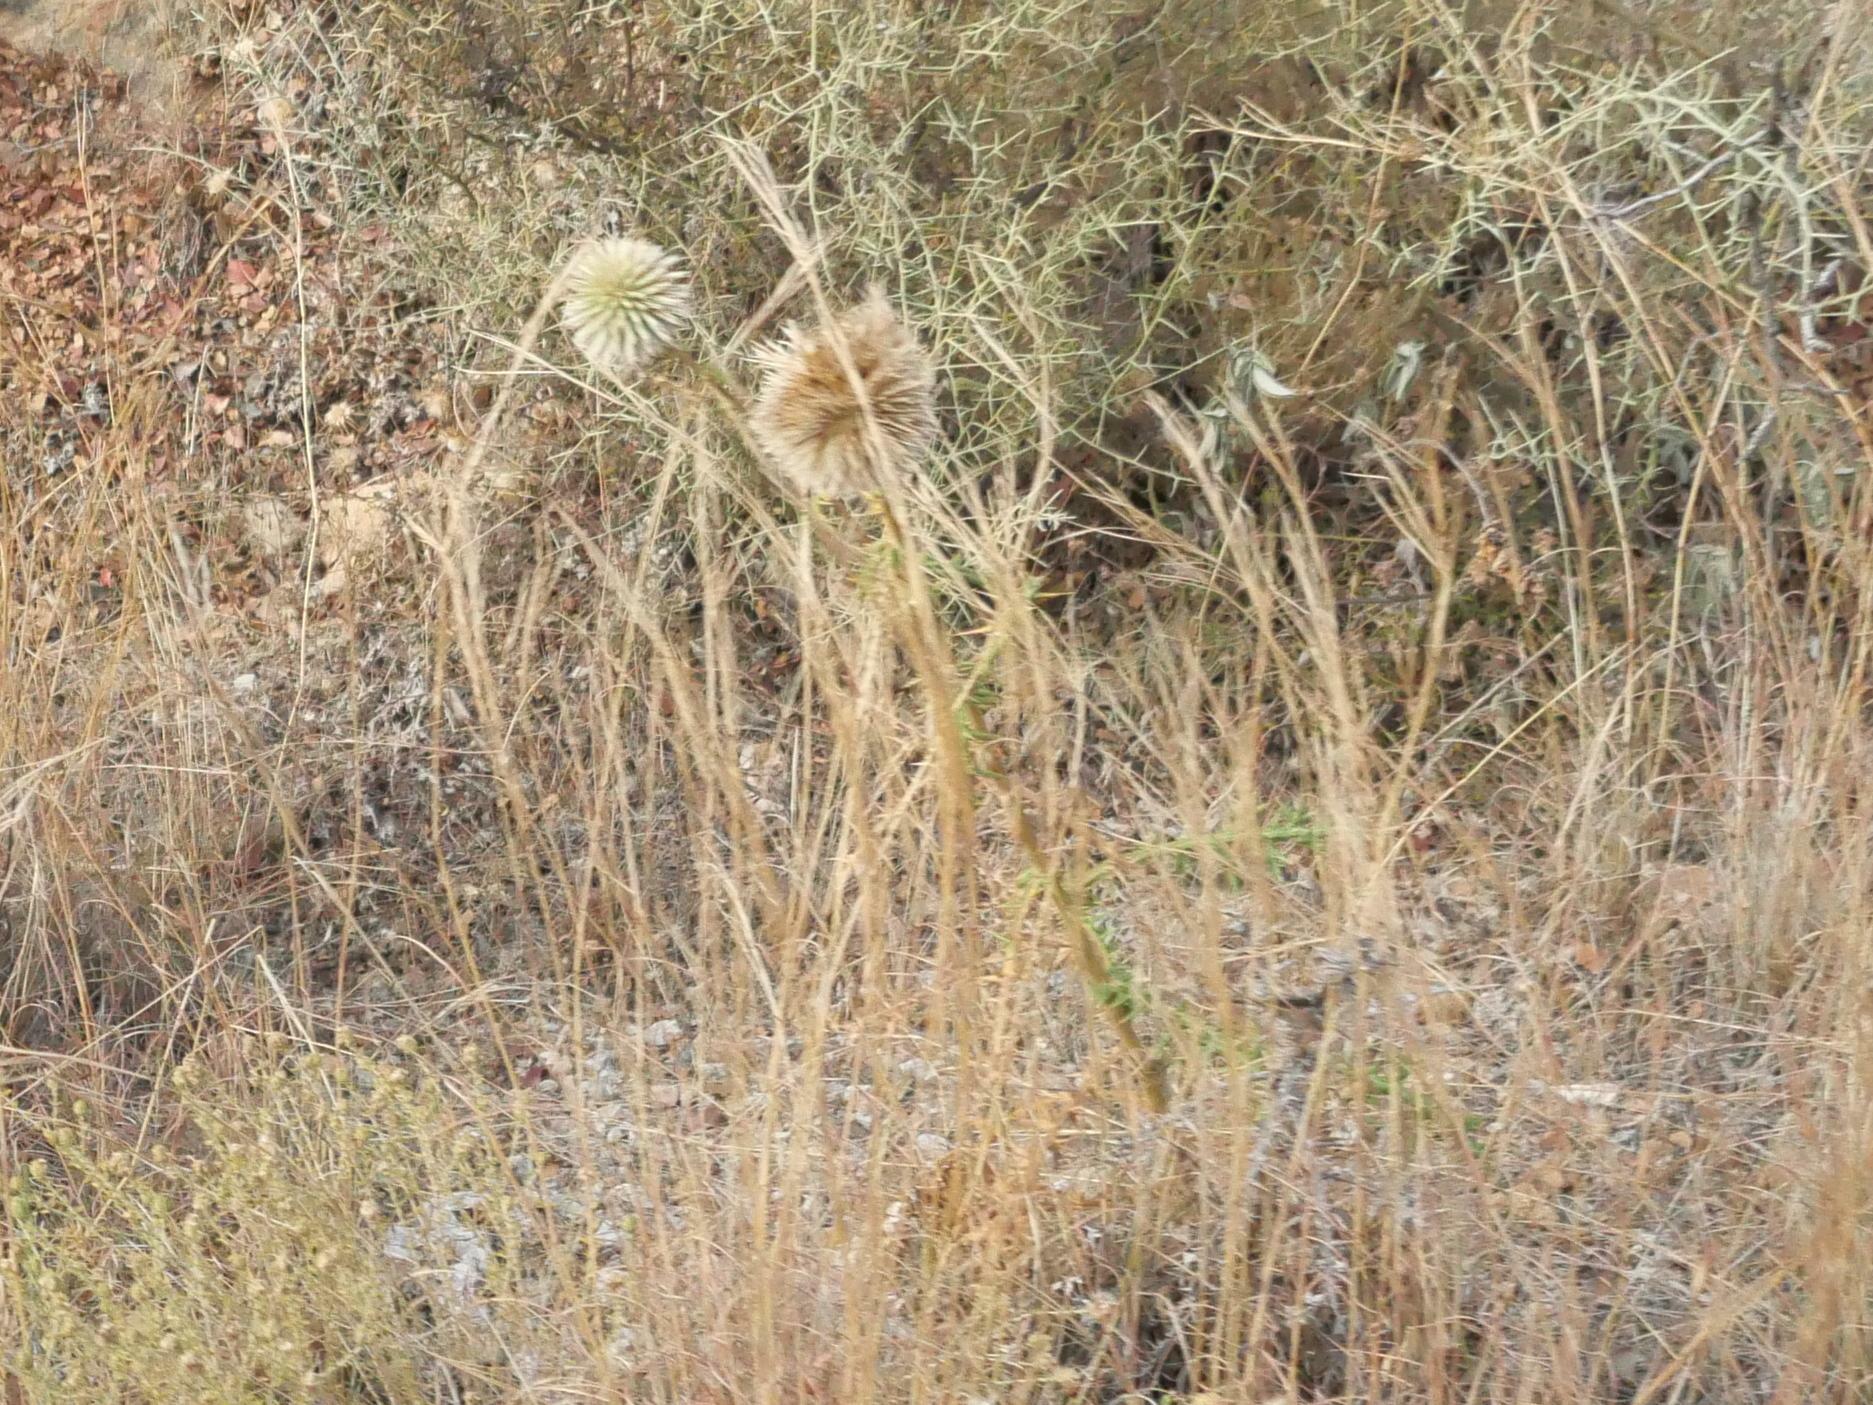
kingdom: Plantae
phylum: Tracheophyta
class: Magnoliopsida
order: Asterales
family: Asteraceae
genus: Echinops
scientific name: Echinops spinosissimus
